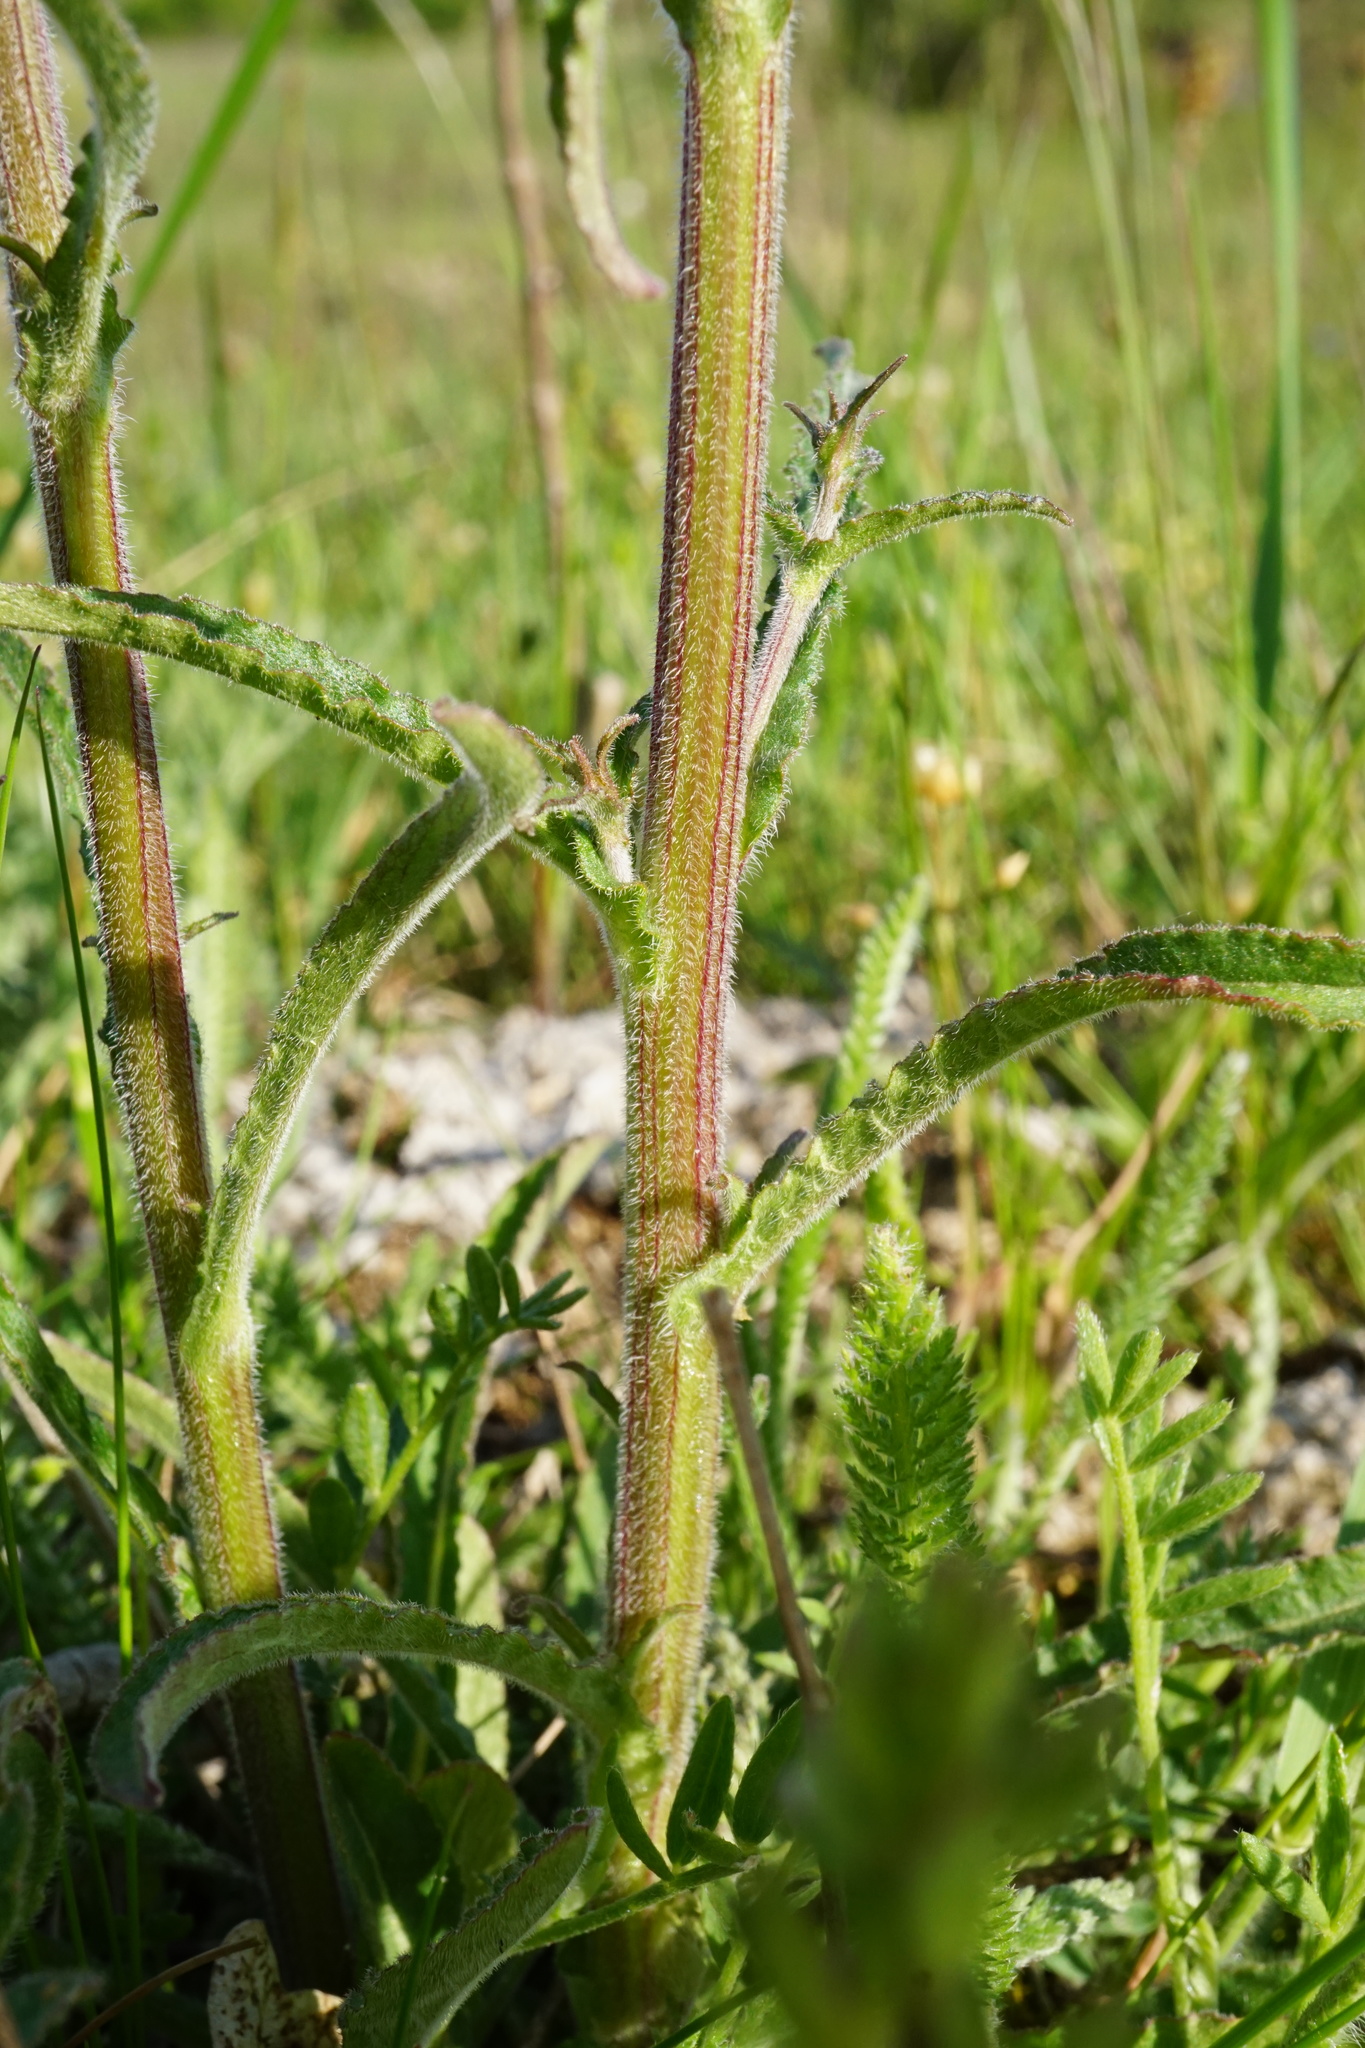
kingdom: Plantae
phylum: Tracheophyta
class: Magnoliopsida
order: Asterales
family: Campanulaceae
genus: Campanula
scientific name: Campanula sibirica
